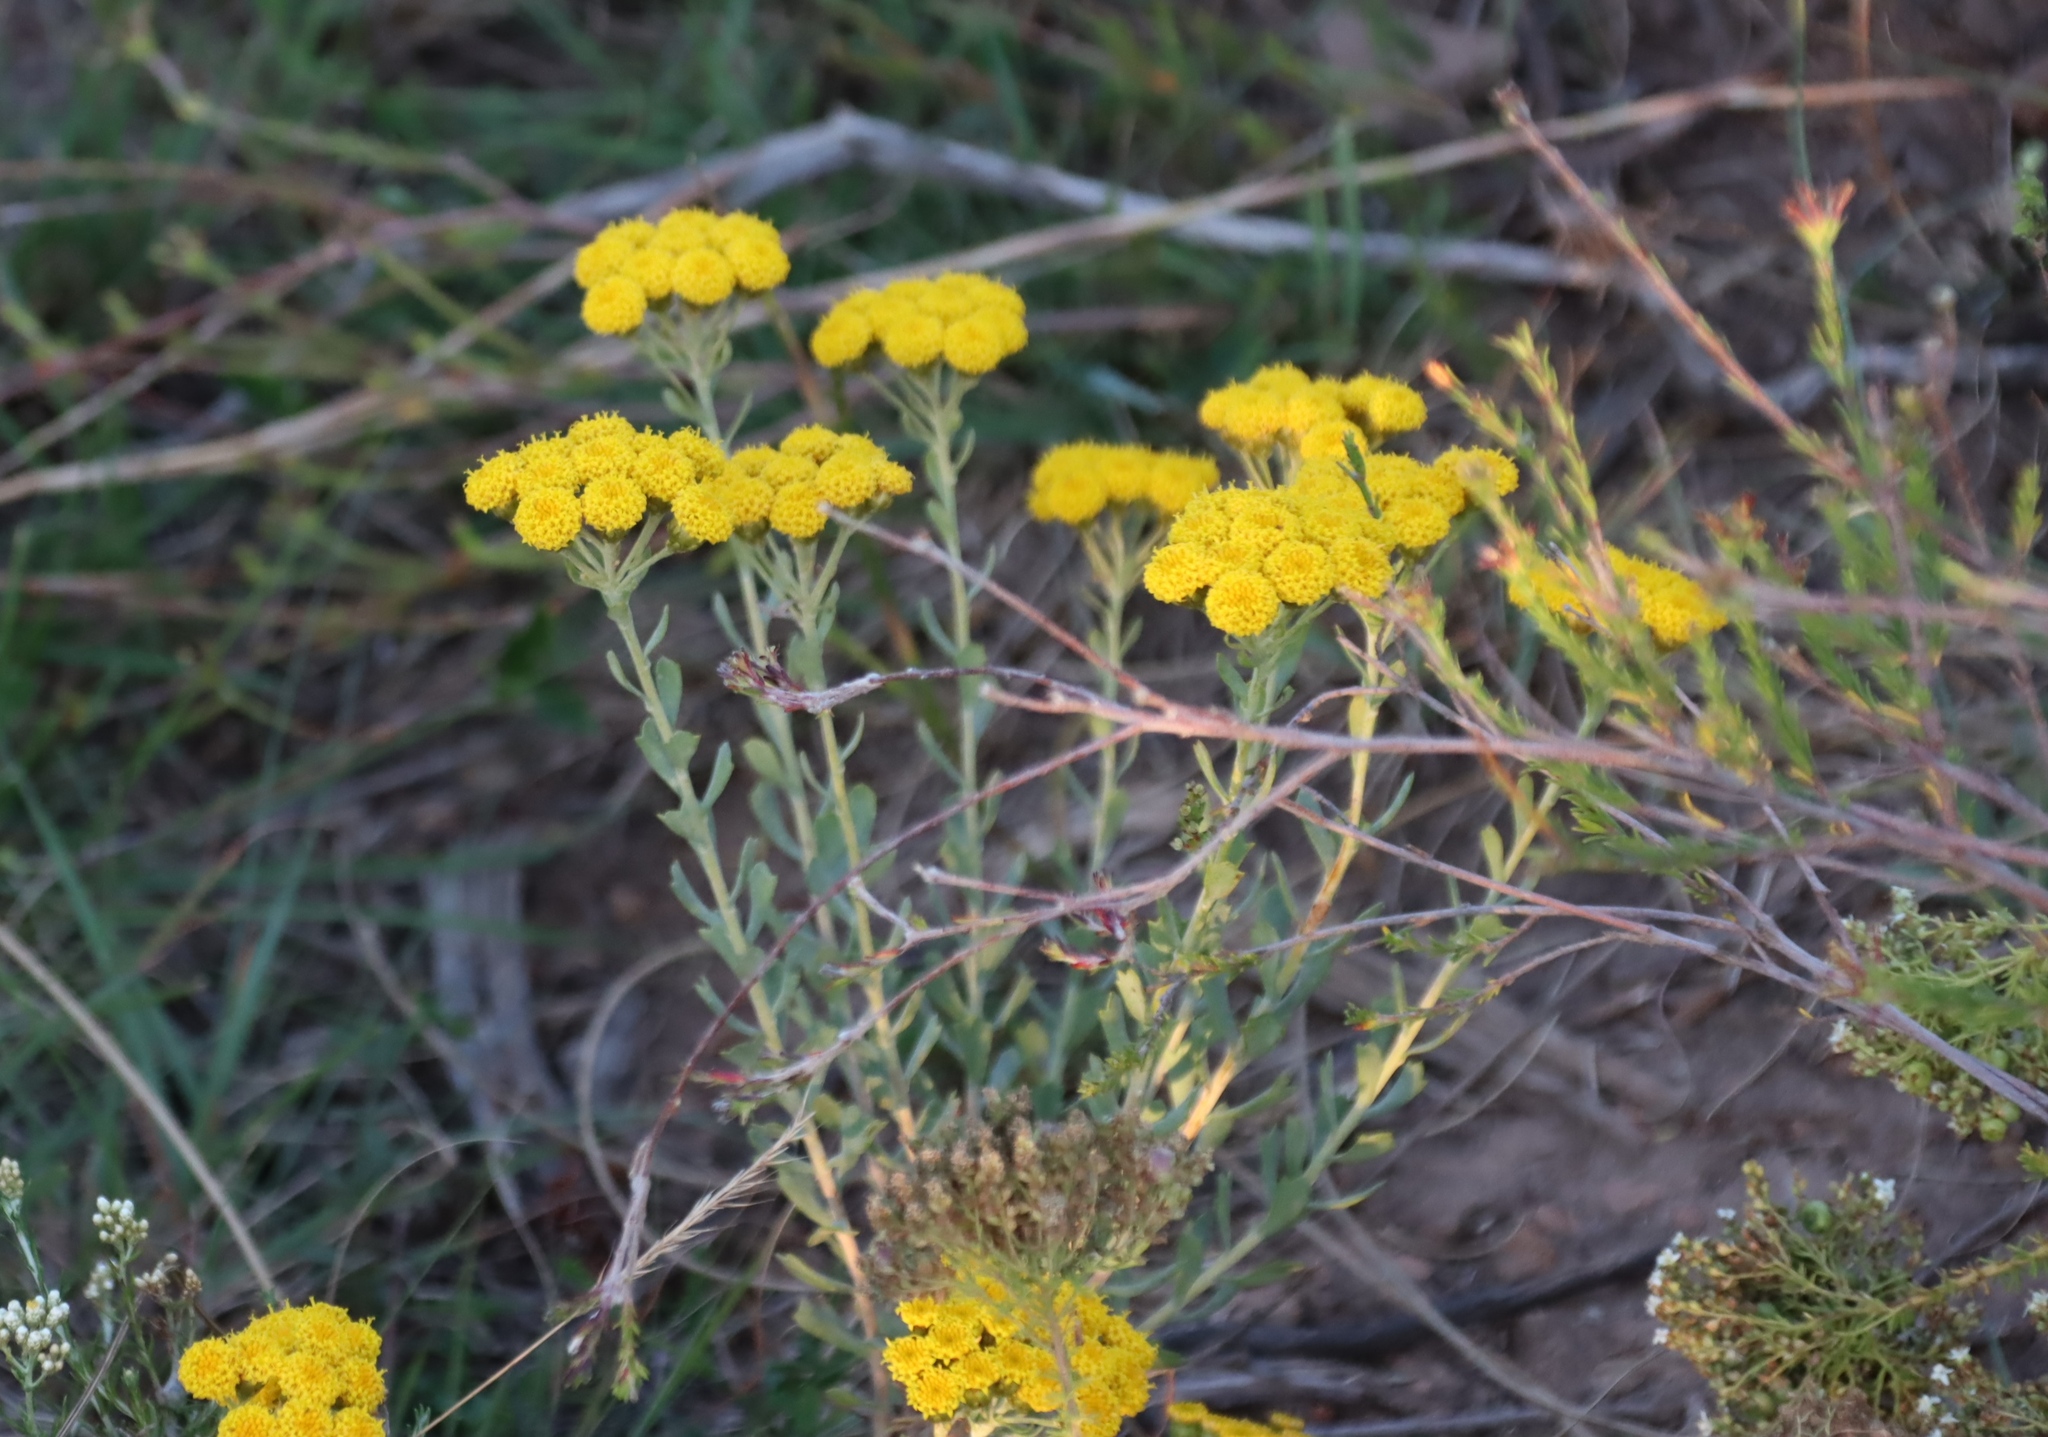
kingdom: Plantae
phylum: Tracheophyta
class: Magnoliopsida
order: Asterales
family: Asteraceae
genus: Athanasia
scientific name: Athanasia trifurcata
